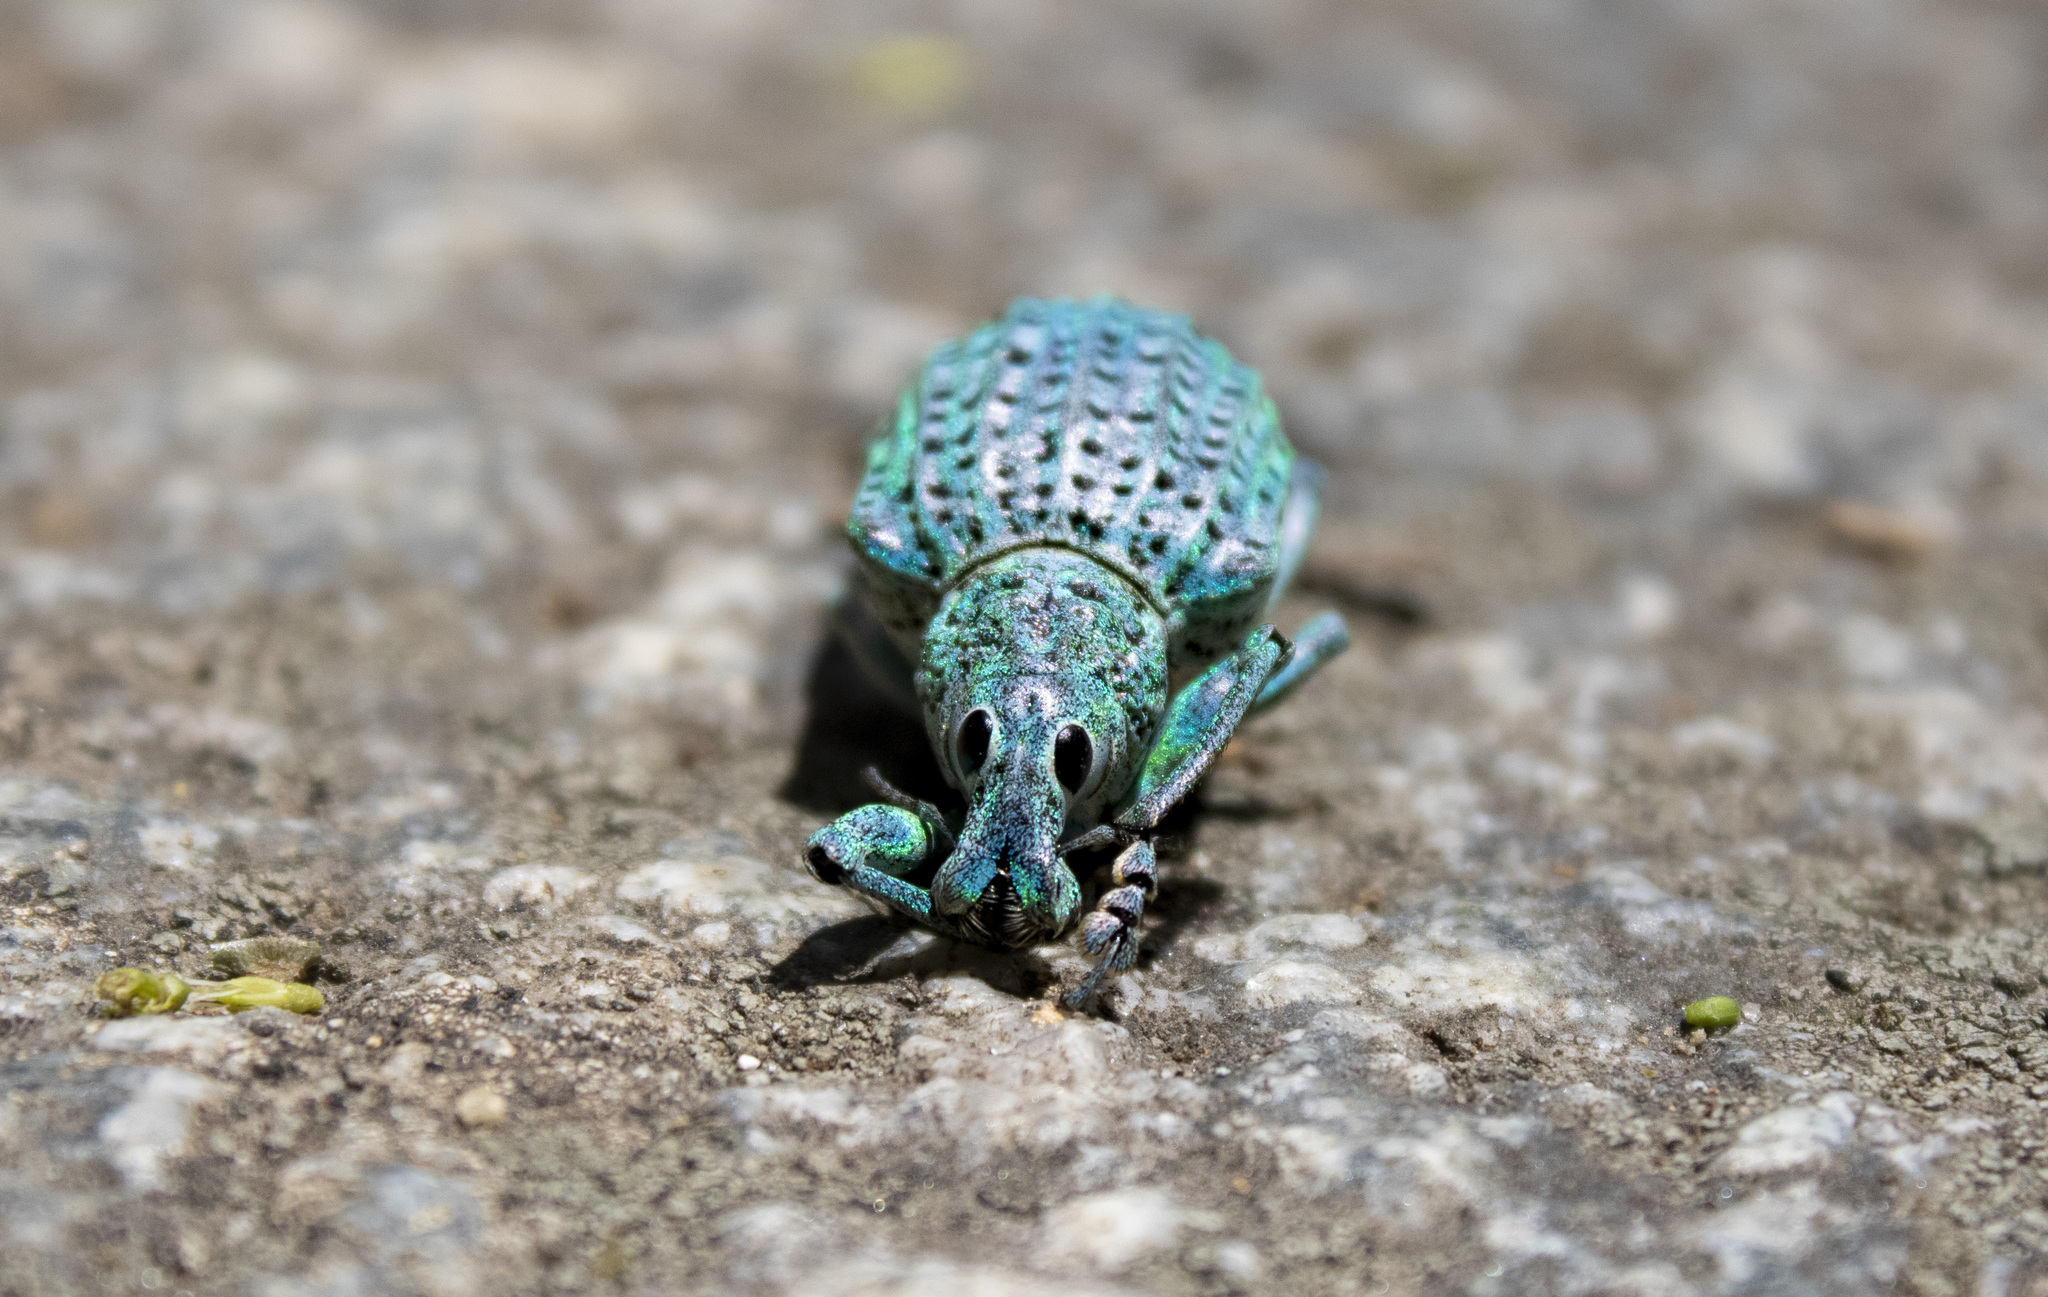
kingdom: Animalia
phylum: Arthropoda
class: Insecta
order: Coleoptera
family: Curculionidae
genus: Rhigus
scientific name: Rhigus nigrosparsus
